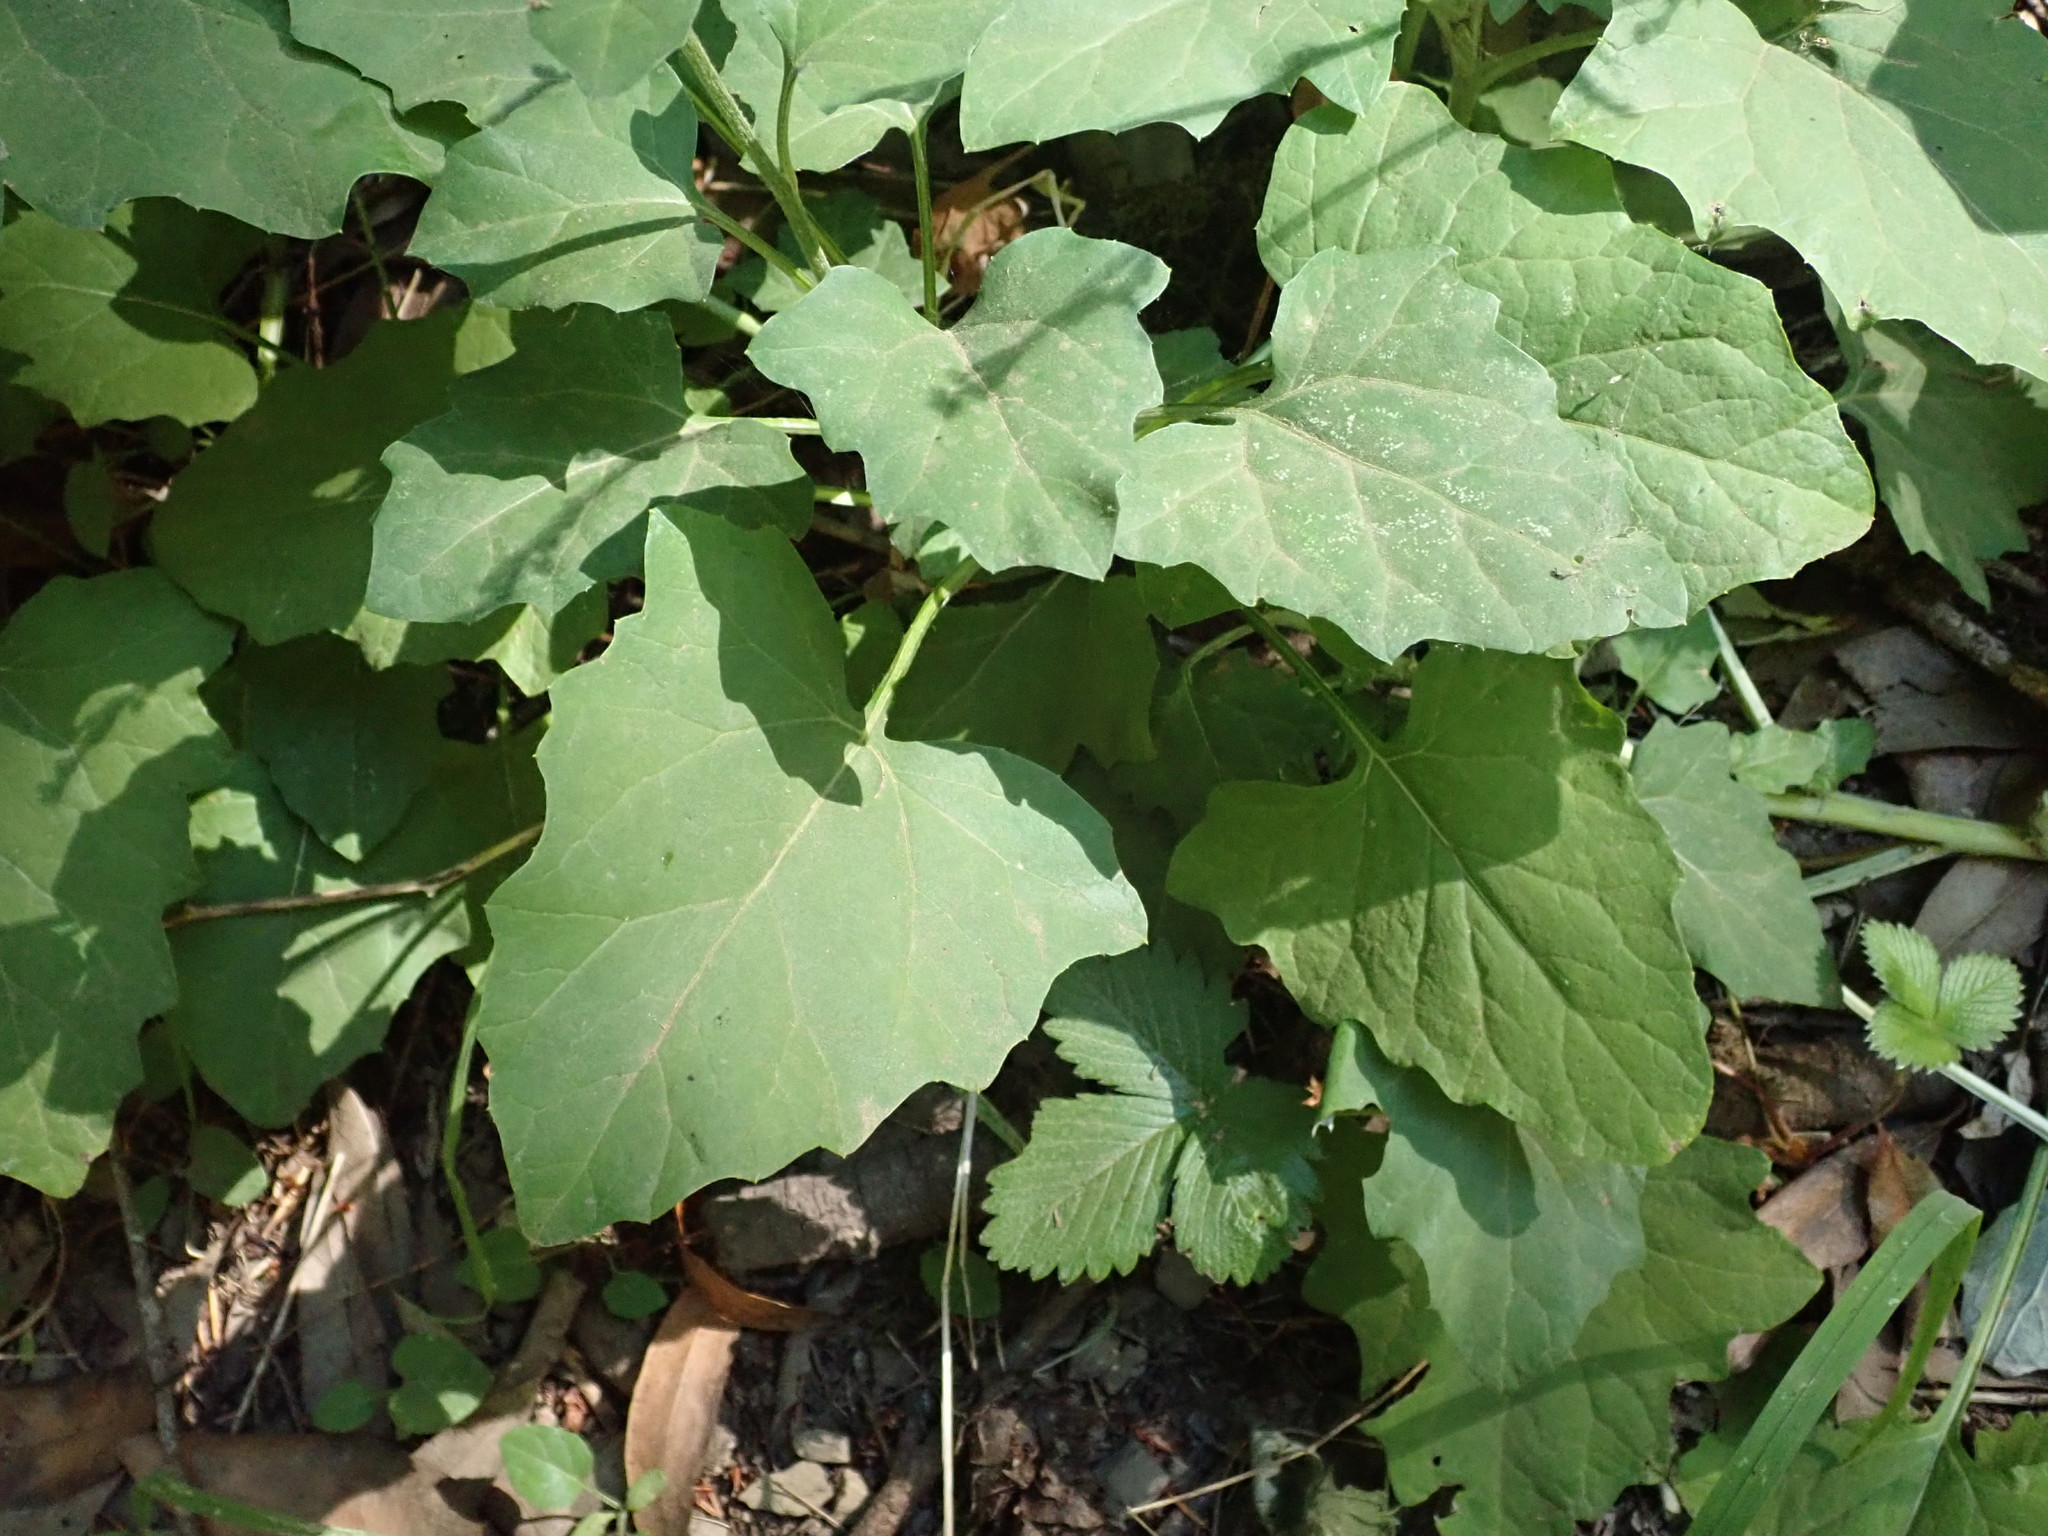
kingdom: Plantae
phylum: Tracheophyta
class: Magnoliopsida
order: Asterales
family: Asteraceae
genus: Adenocaulon
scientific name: Adenocaulon bicolor
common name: Trailplant
